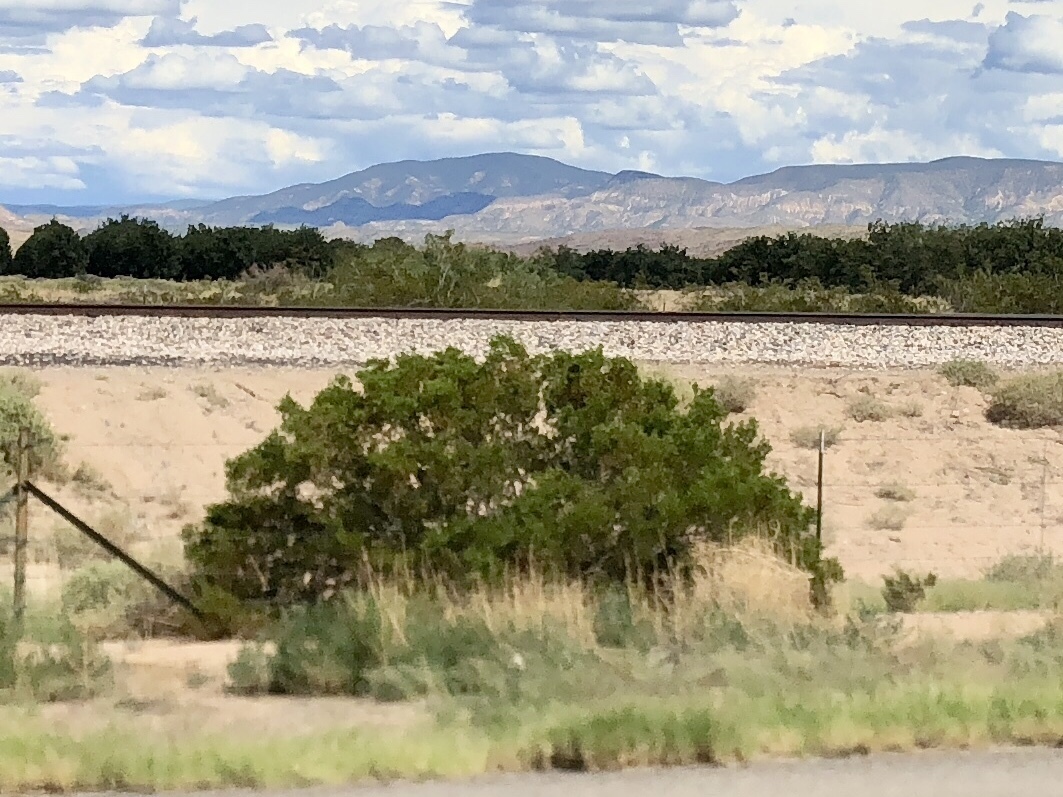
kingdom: Plantae
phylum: Tracheophyta
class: Magnoliopsida
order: Zygophyllales
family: Zygophyllaceae
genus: Larrea
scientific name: Larrea tridentata
